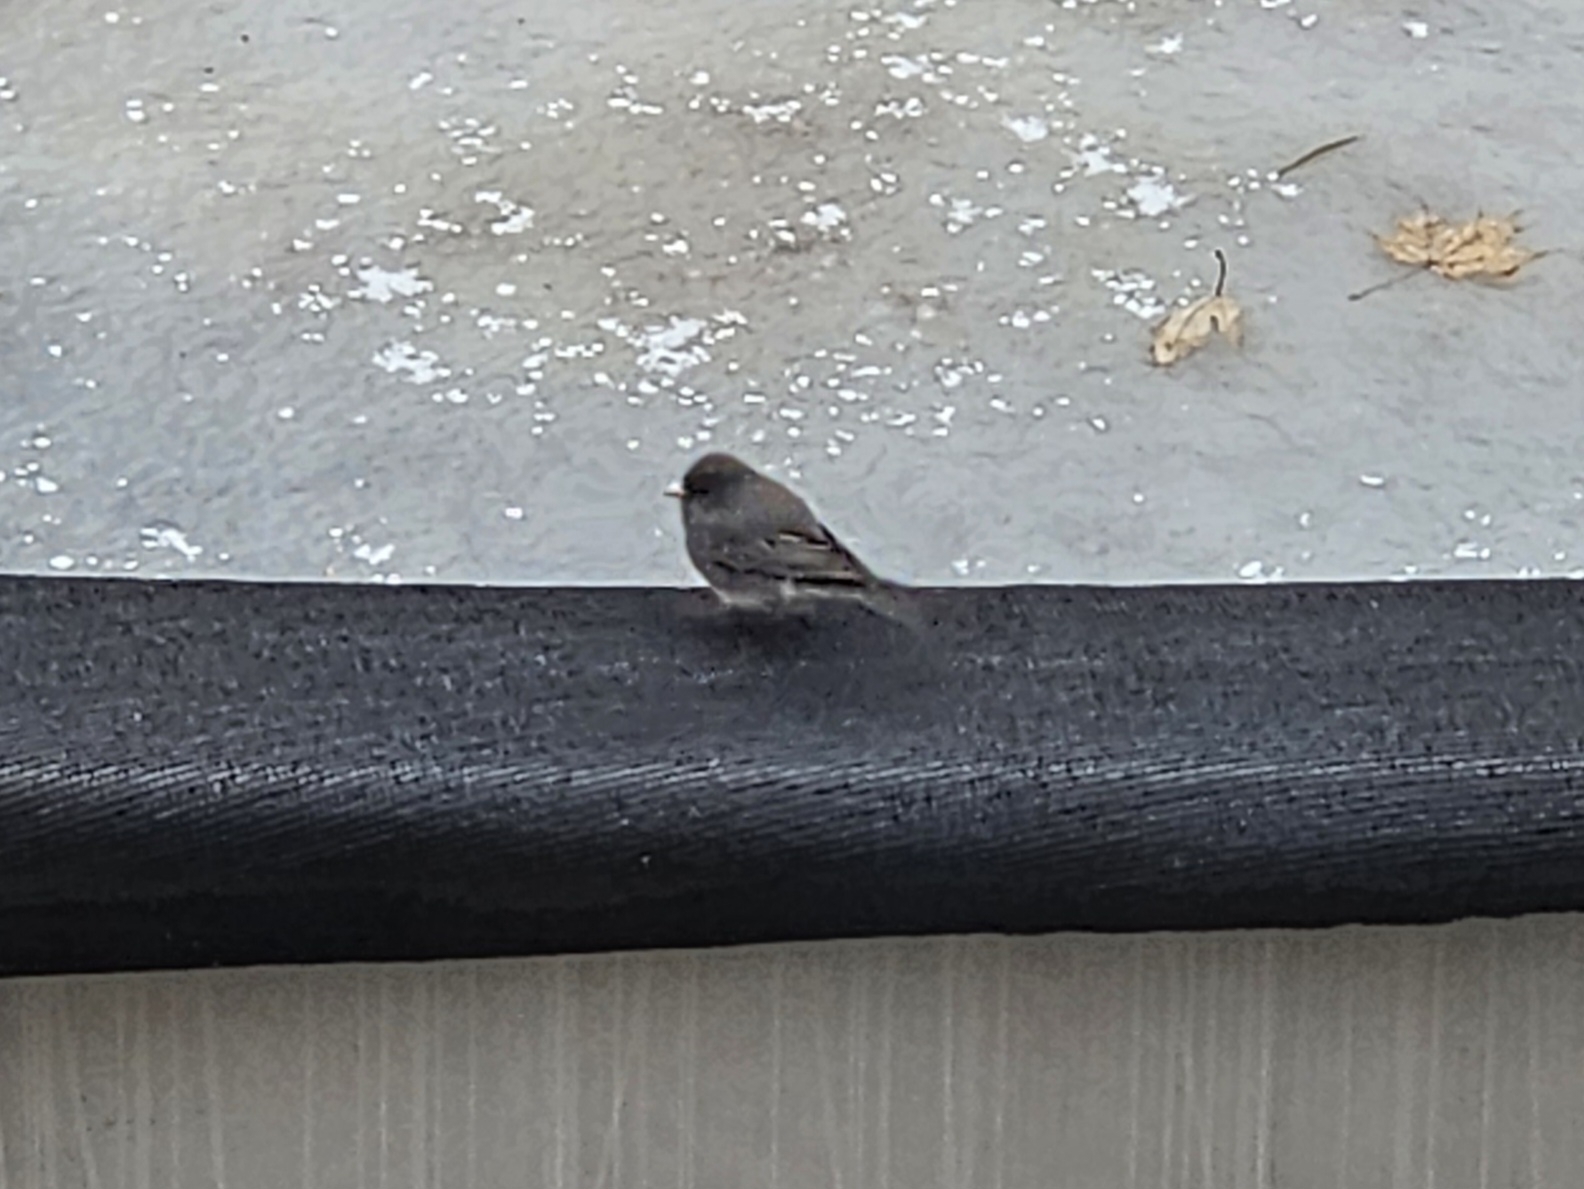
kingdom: Animalia
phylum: Chordata
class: Aves
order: Passeriformes
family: Passerellidae
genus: Junco
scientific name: Junco hyemalis
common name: Dark-eyed junco
